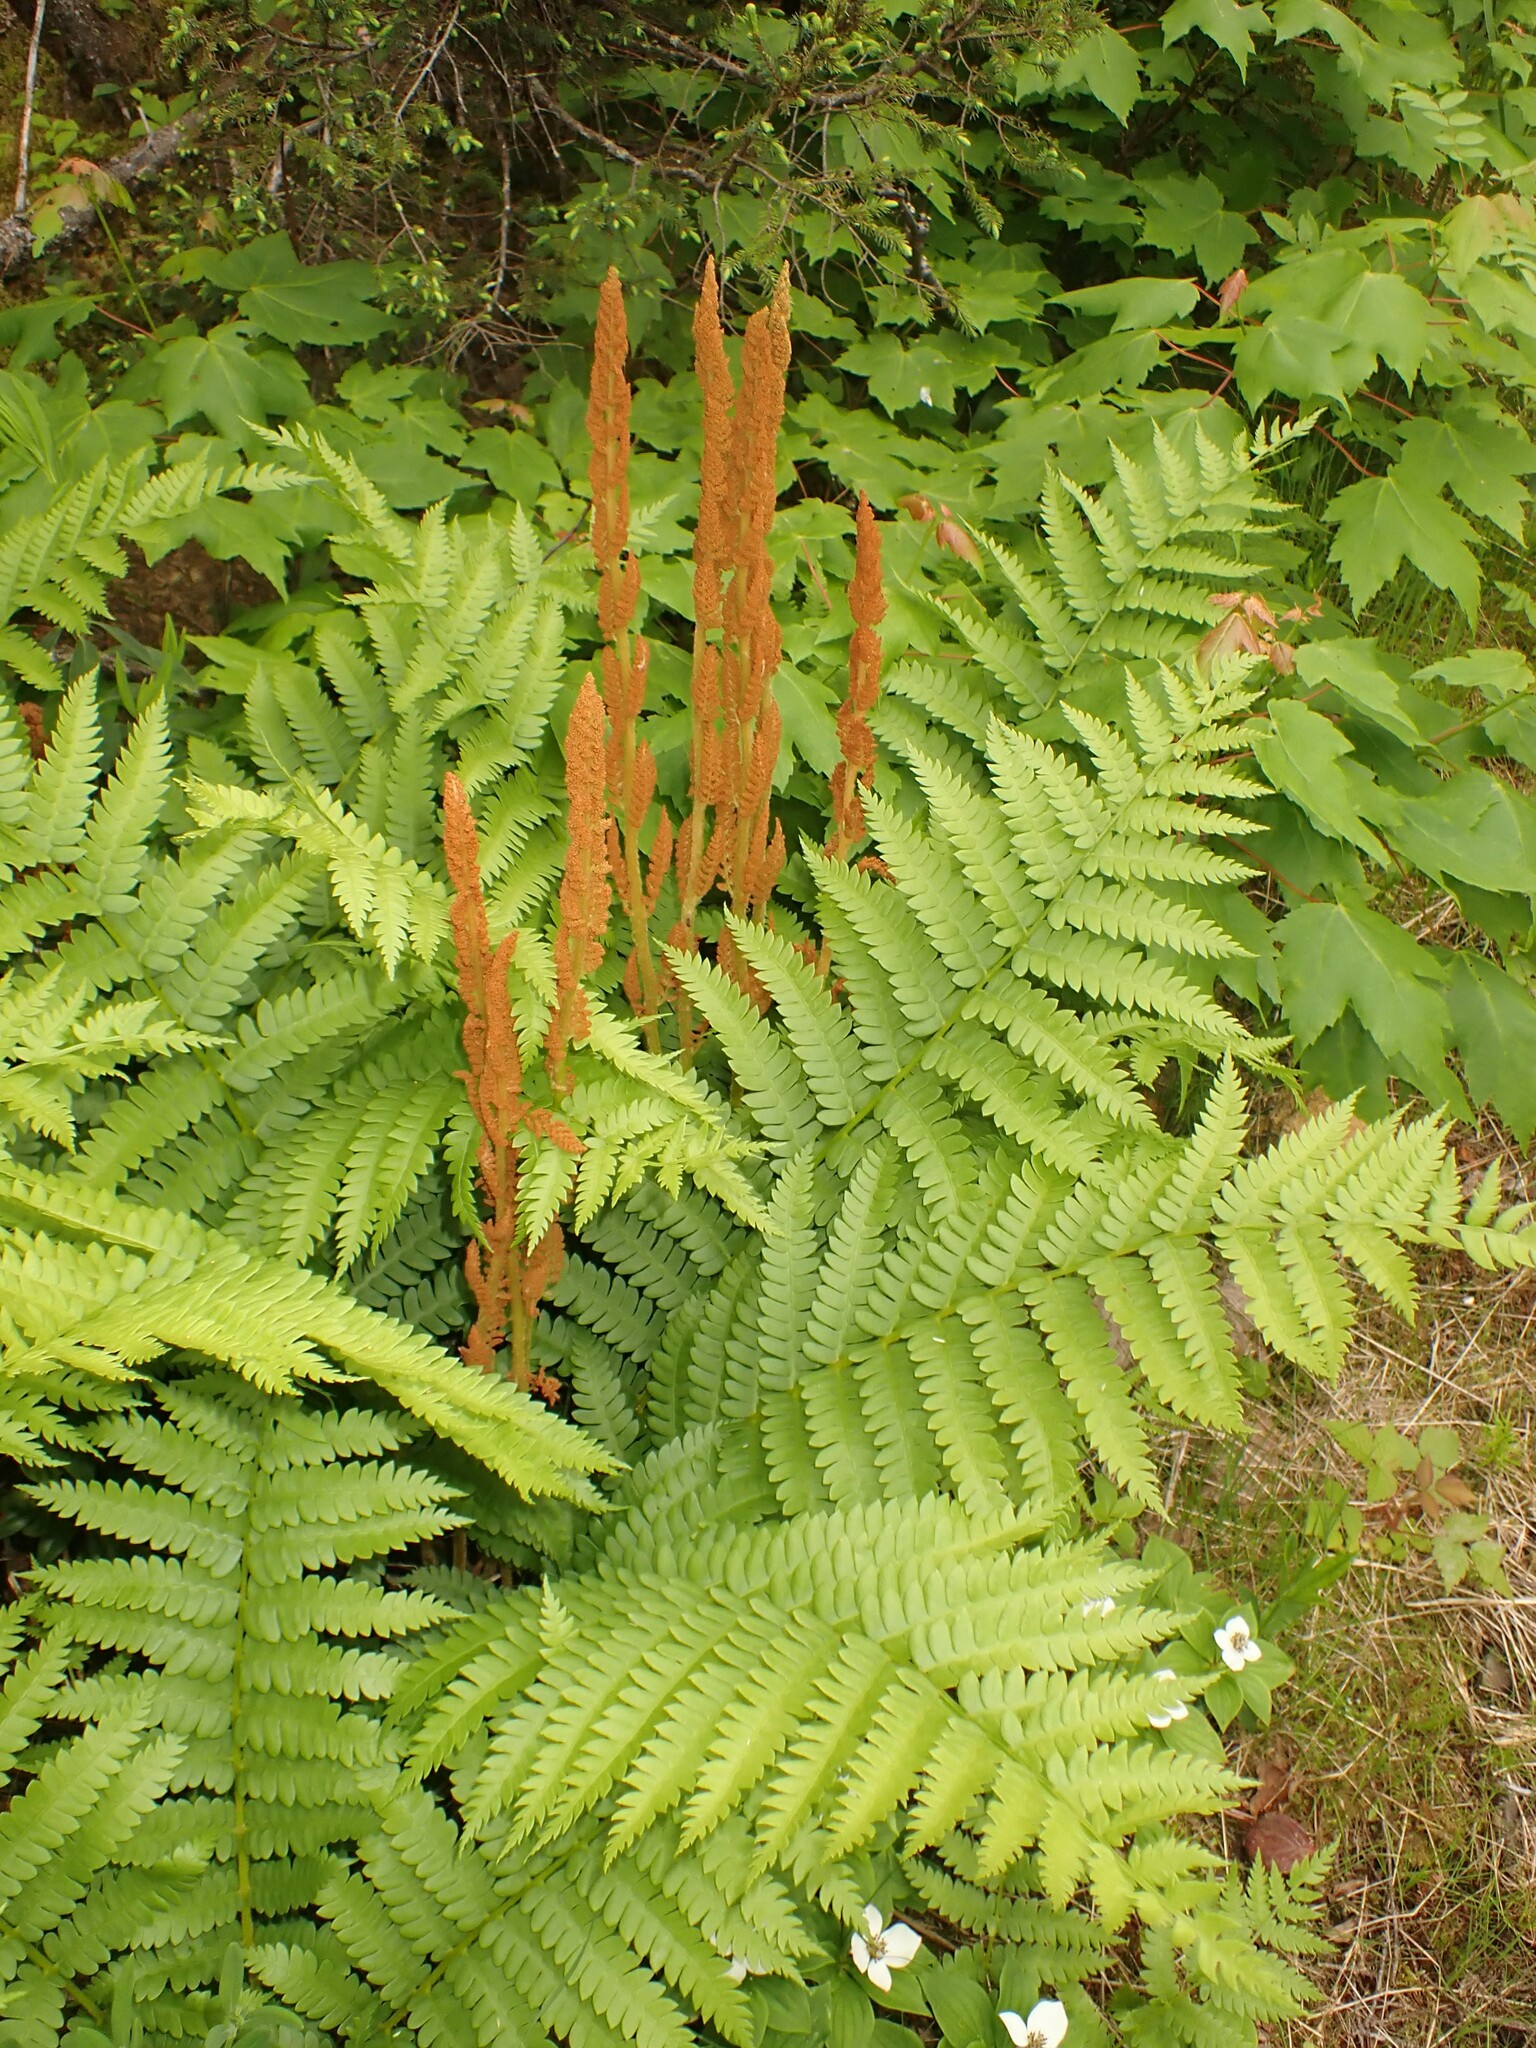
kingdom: Plantae
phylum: Tracheophyta
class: Polypodiopsida
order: Osmundales
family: Osmundaceae
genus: Osmundastrum
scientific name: Osmundastrum cinnamomeum
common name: Cinnamon fern
